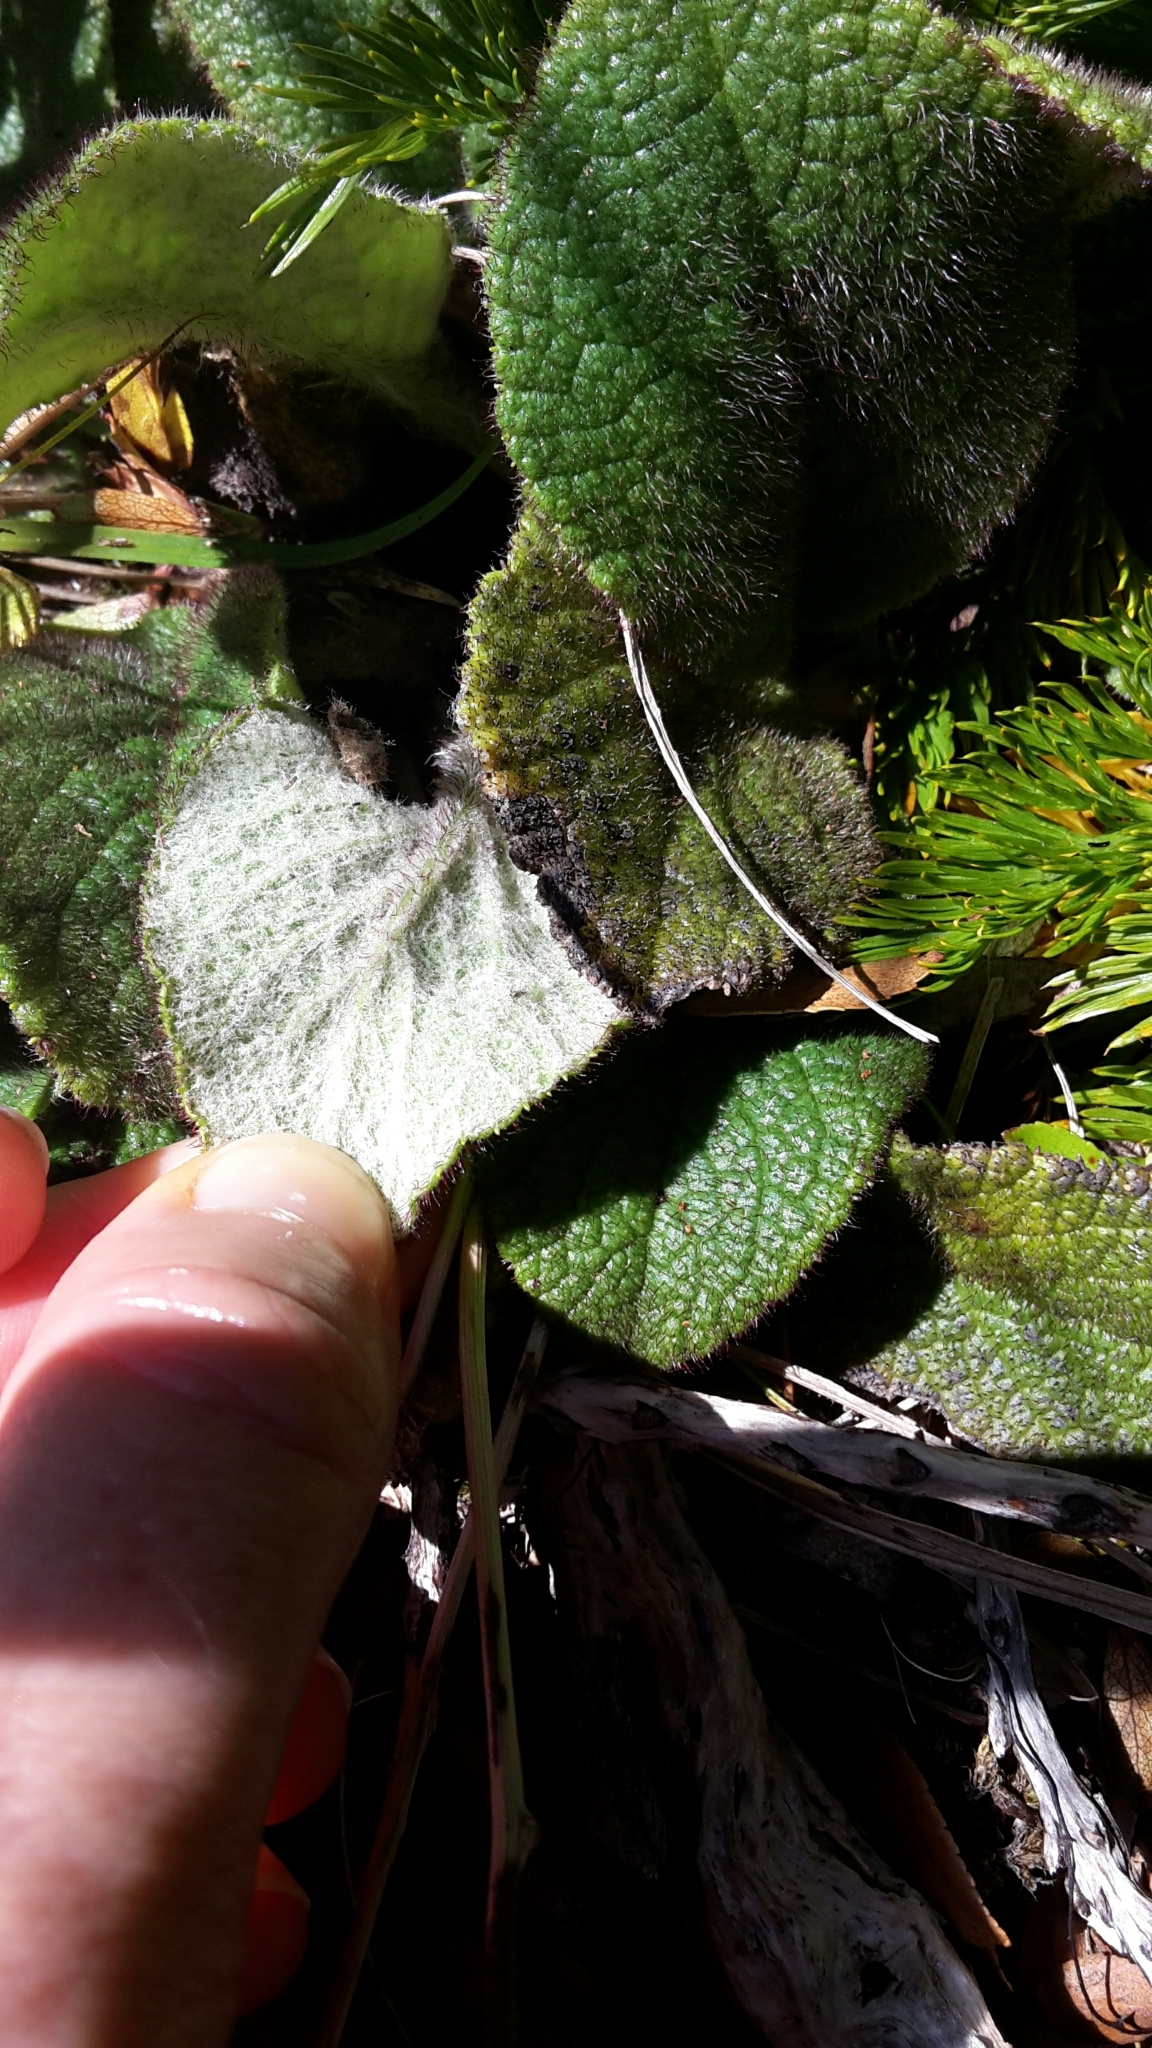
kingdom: Plantae
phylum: Tracheophyta
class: Magnoliopsida
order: Asterales
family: Asteraceae
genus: Brachyglottis
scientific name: Brachyglottis lagopus
